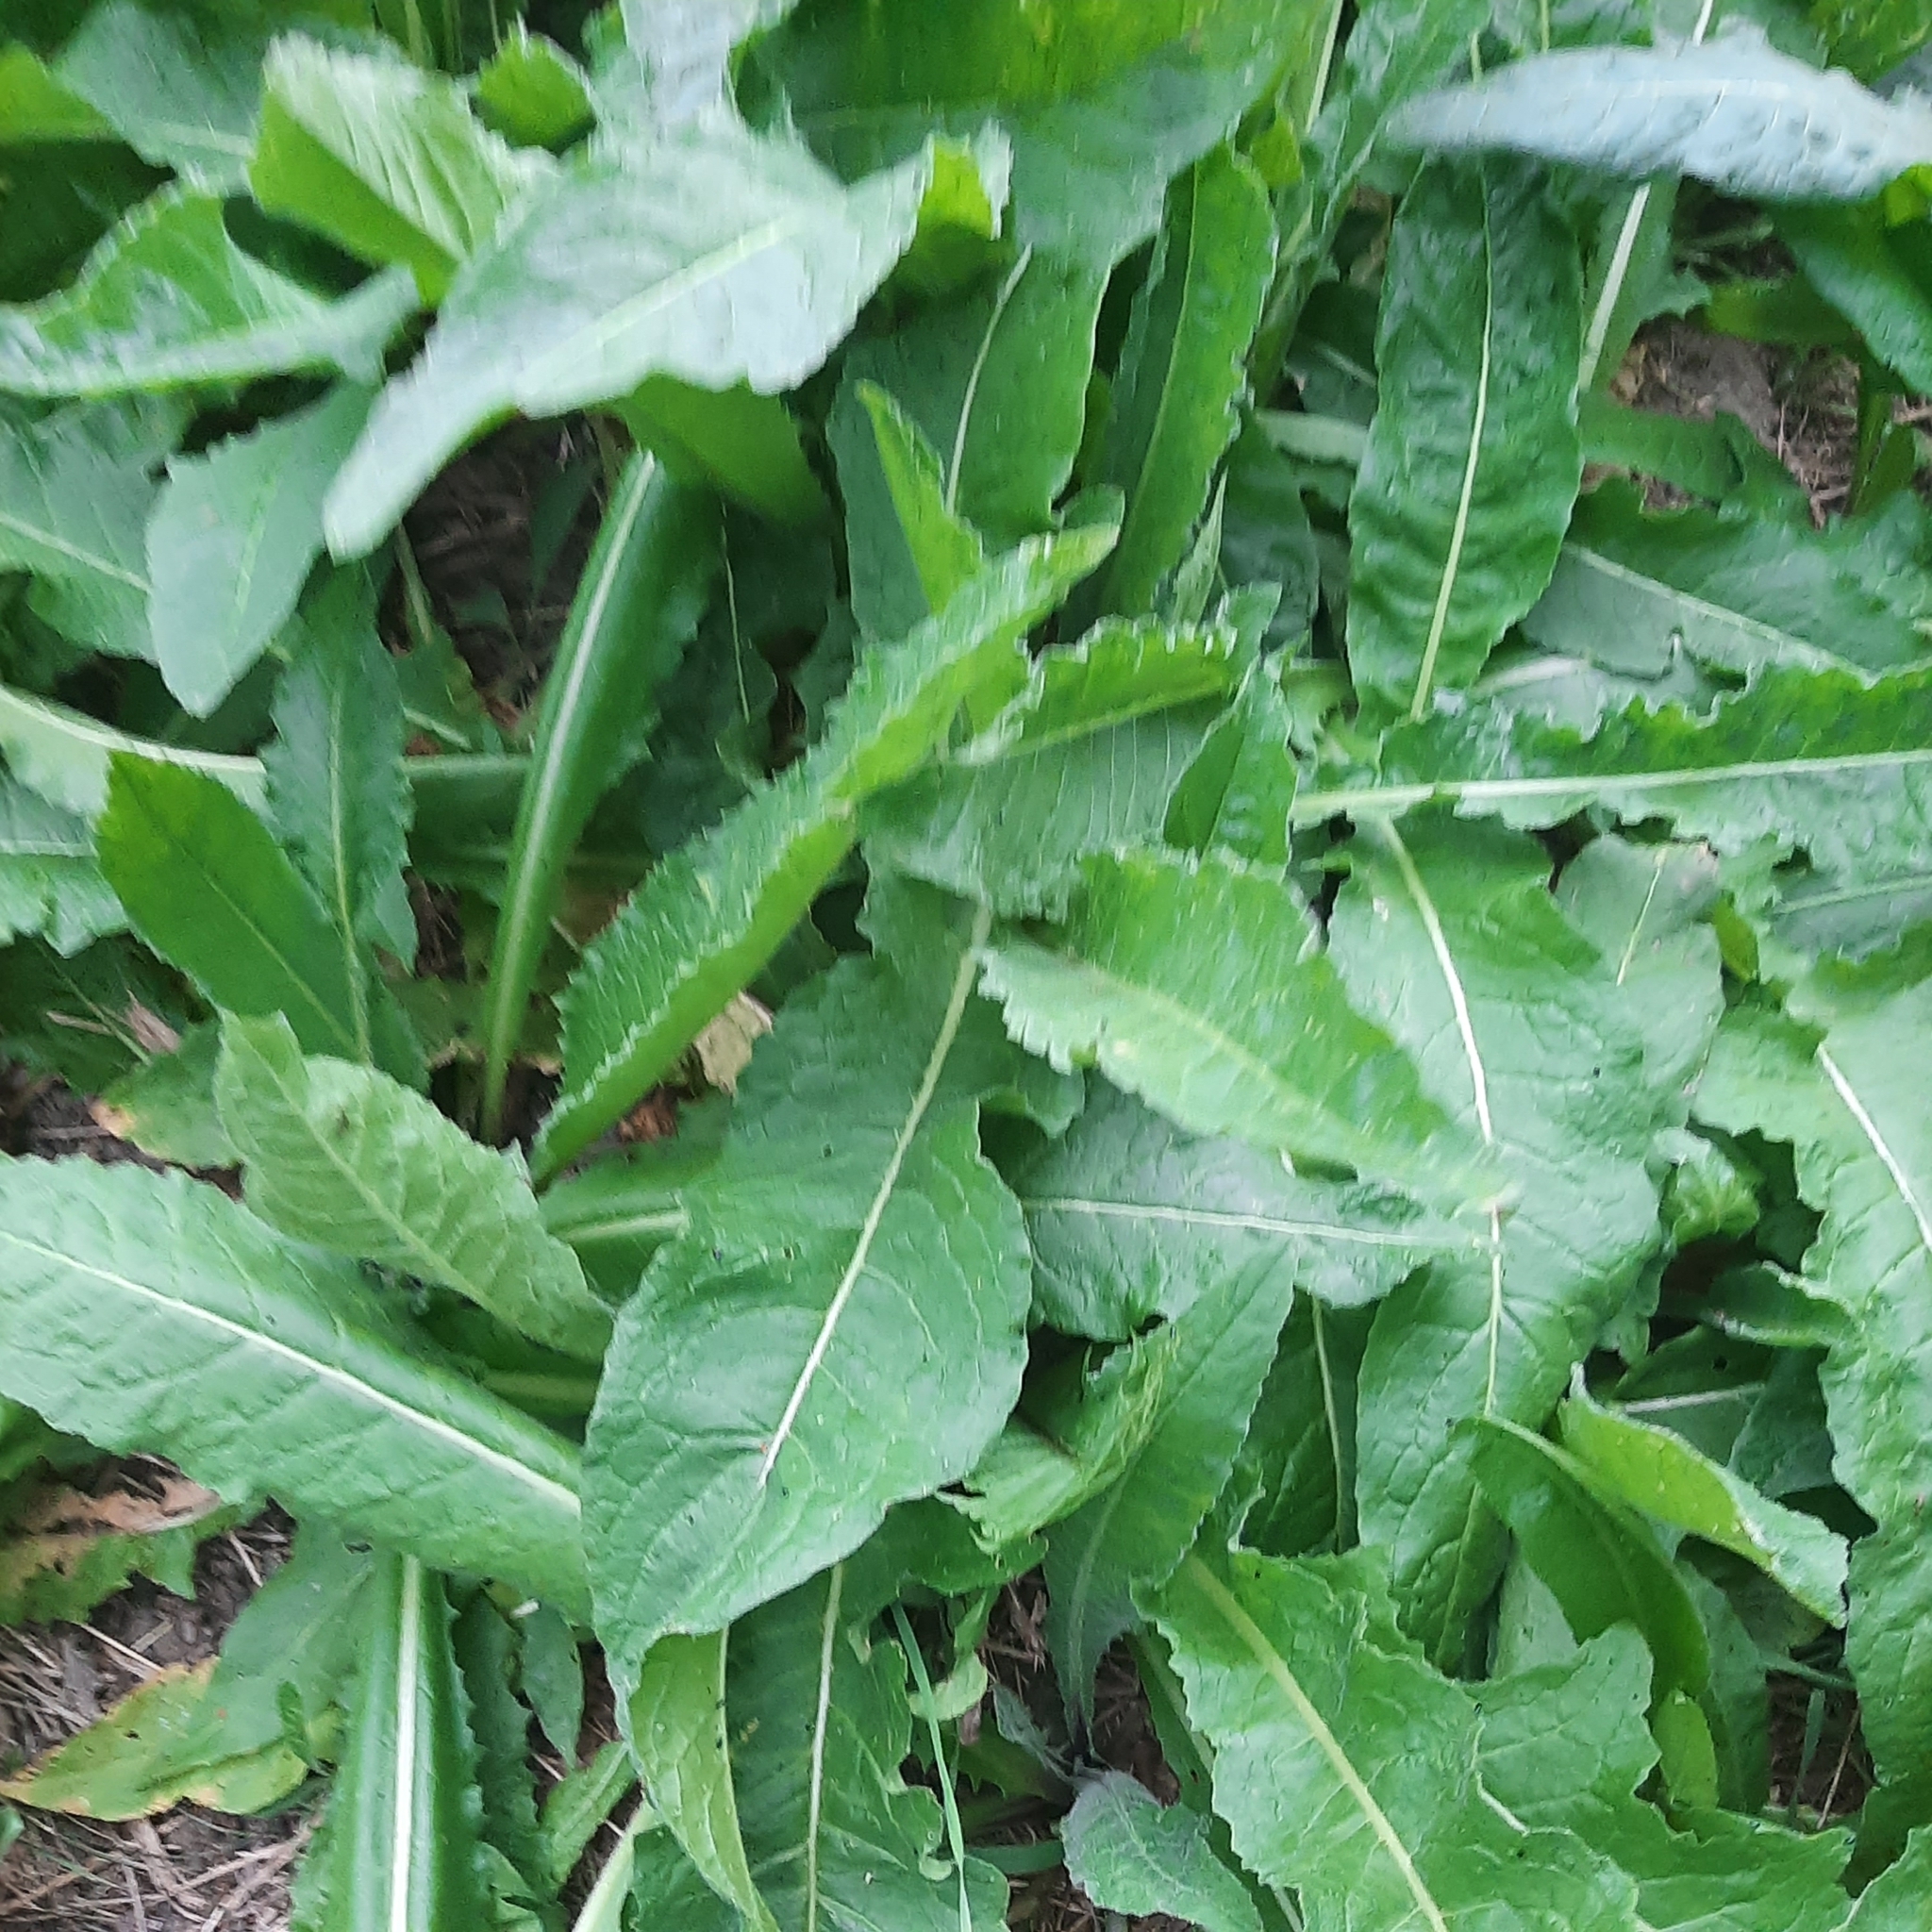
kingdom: Plantae
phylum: Tracheophyta
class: Magnoliopsida
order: Brassicales
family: Brassicaceae
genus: Bunias
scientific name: Bunias orientalis
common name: Warty-cabbage
